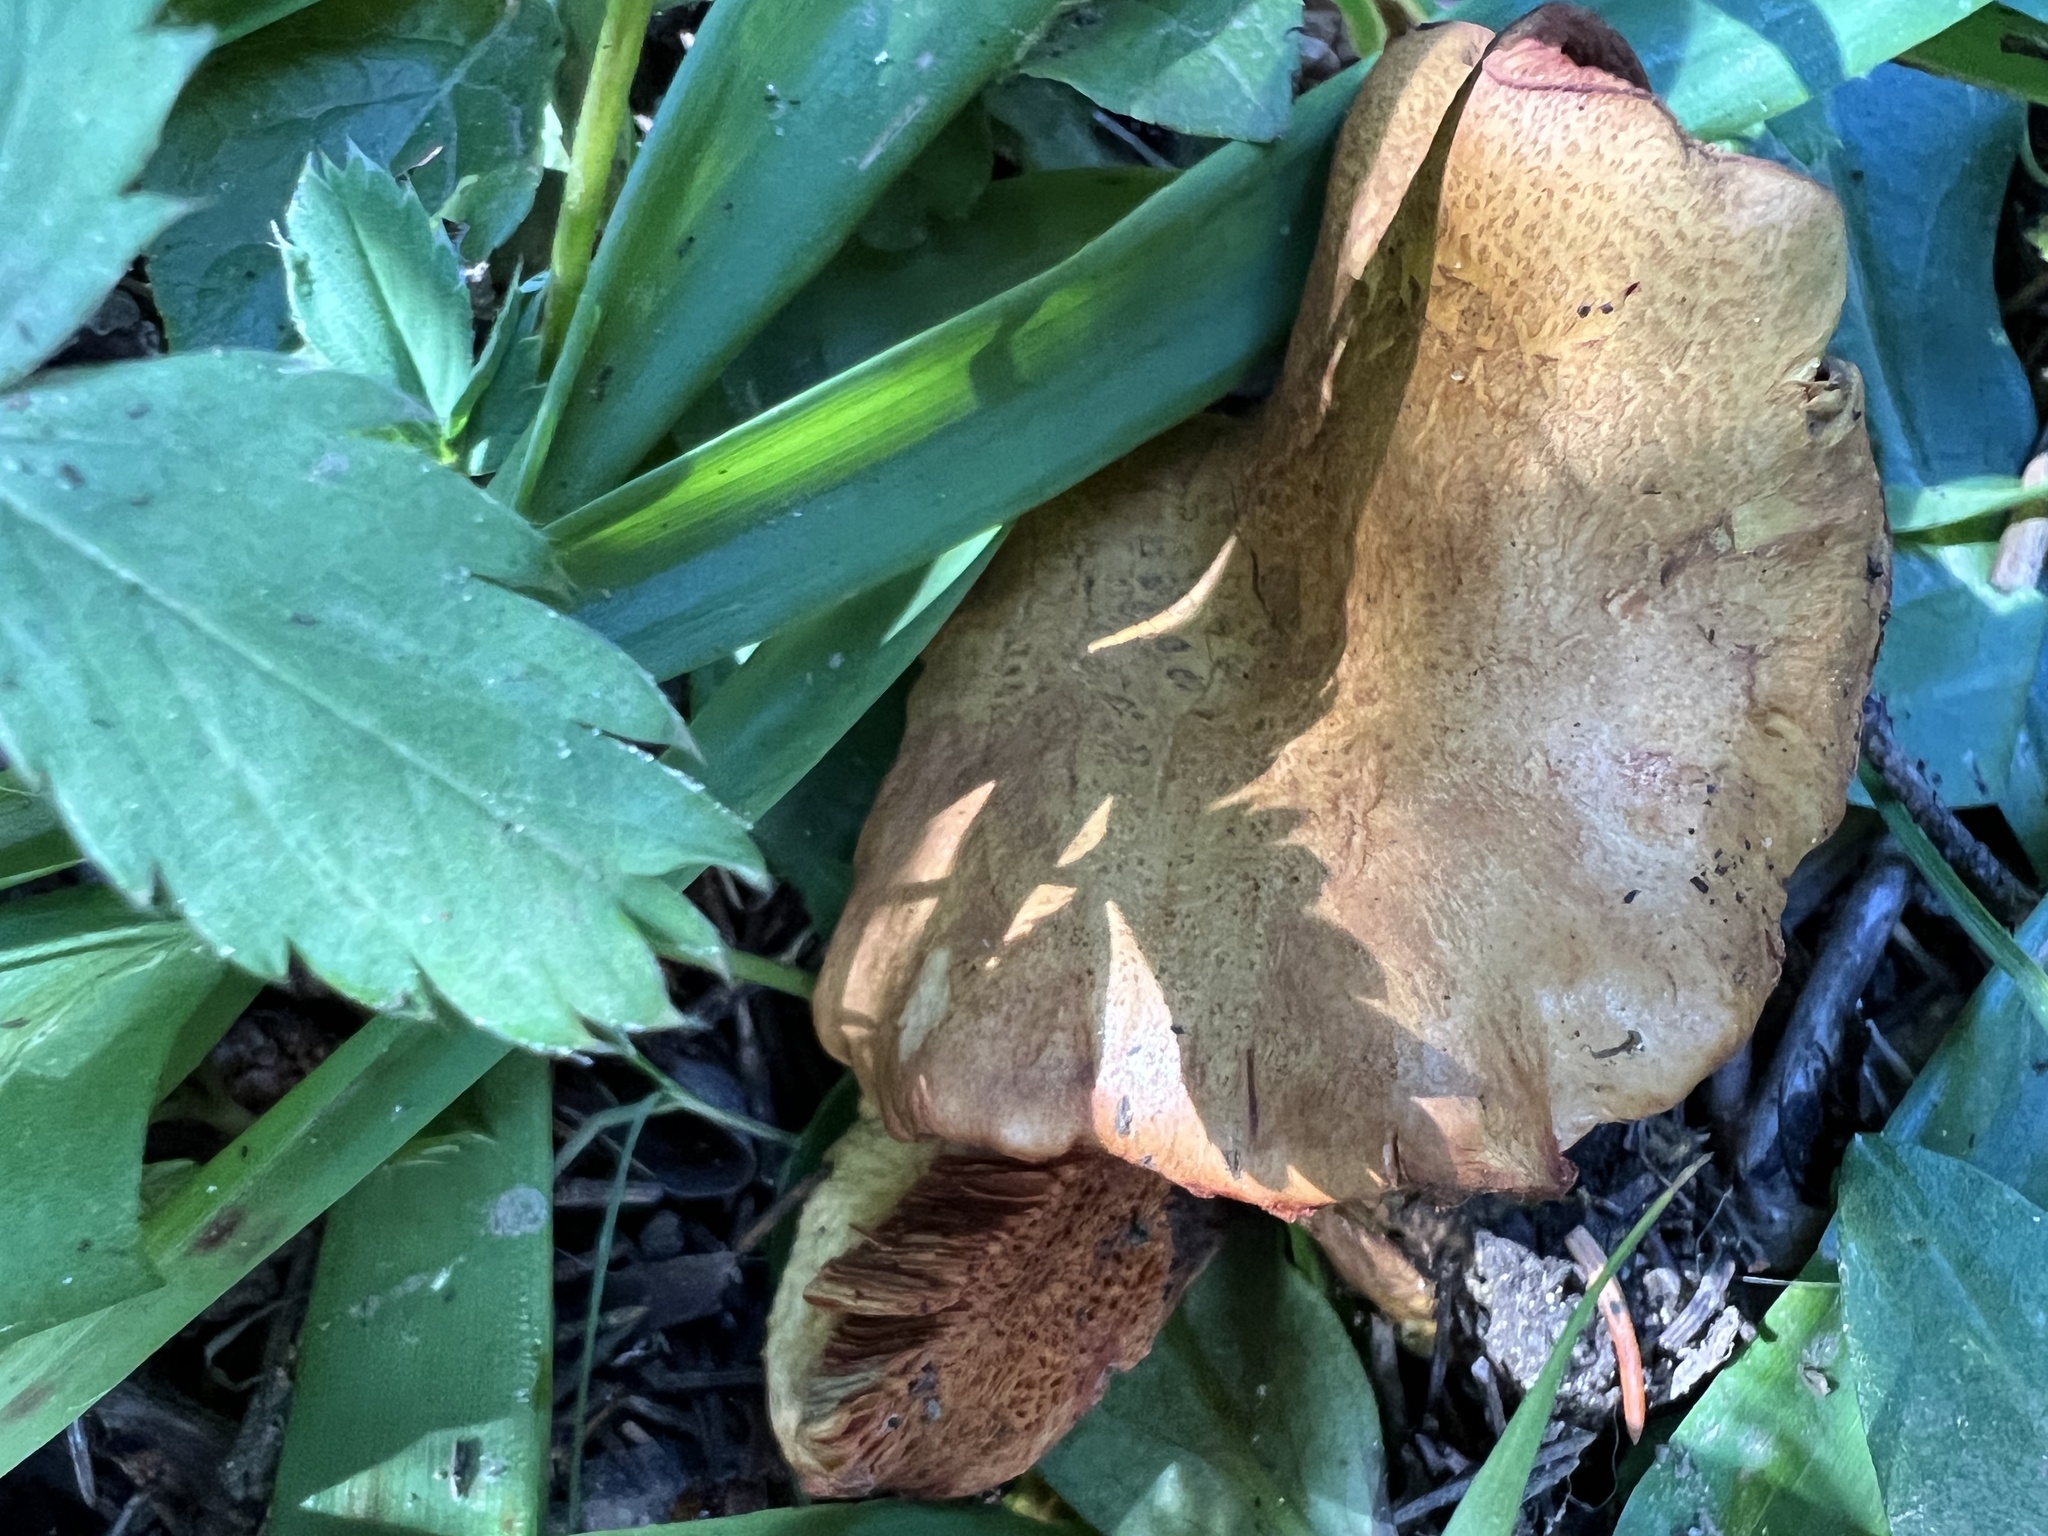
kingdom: Fungi
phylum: Basidiomycota
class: Agaricomycetes
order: Boletales
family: Boletaceae
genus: Chalciporus
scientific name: Chalciporus piperatus
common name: Peppery bolete
